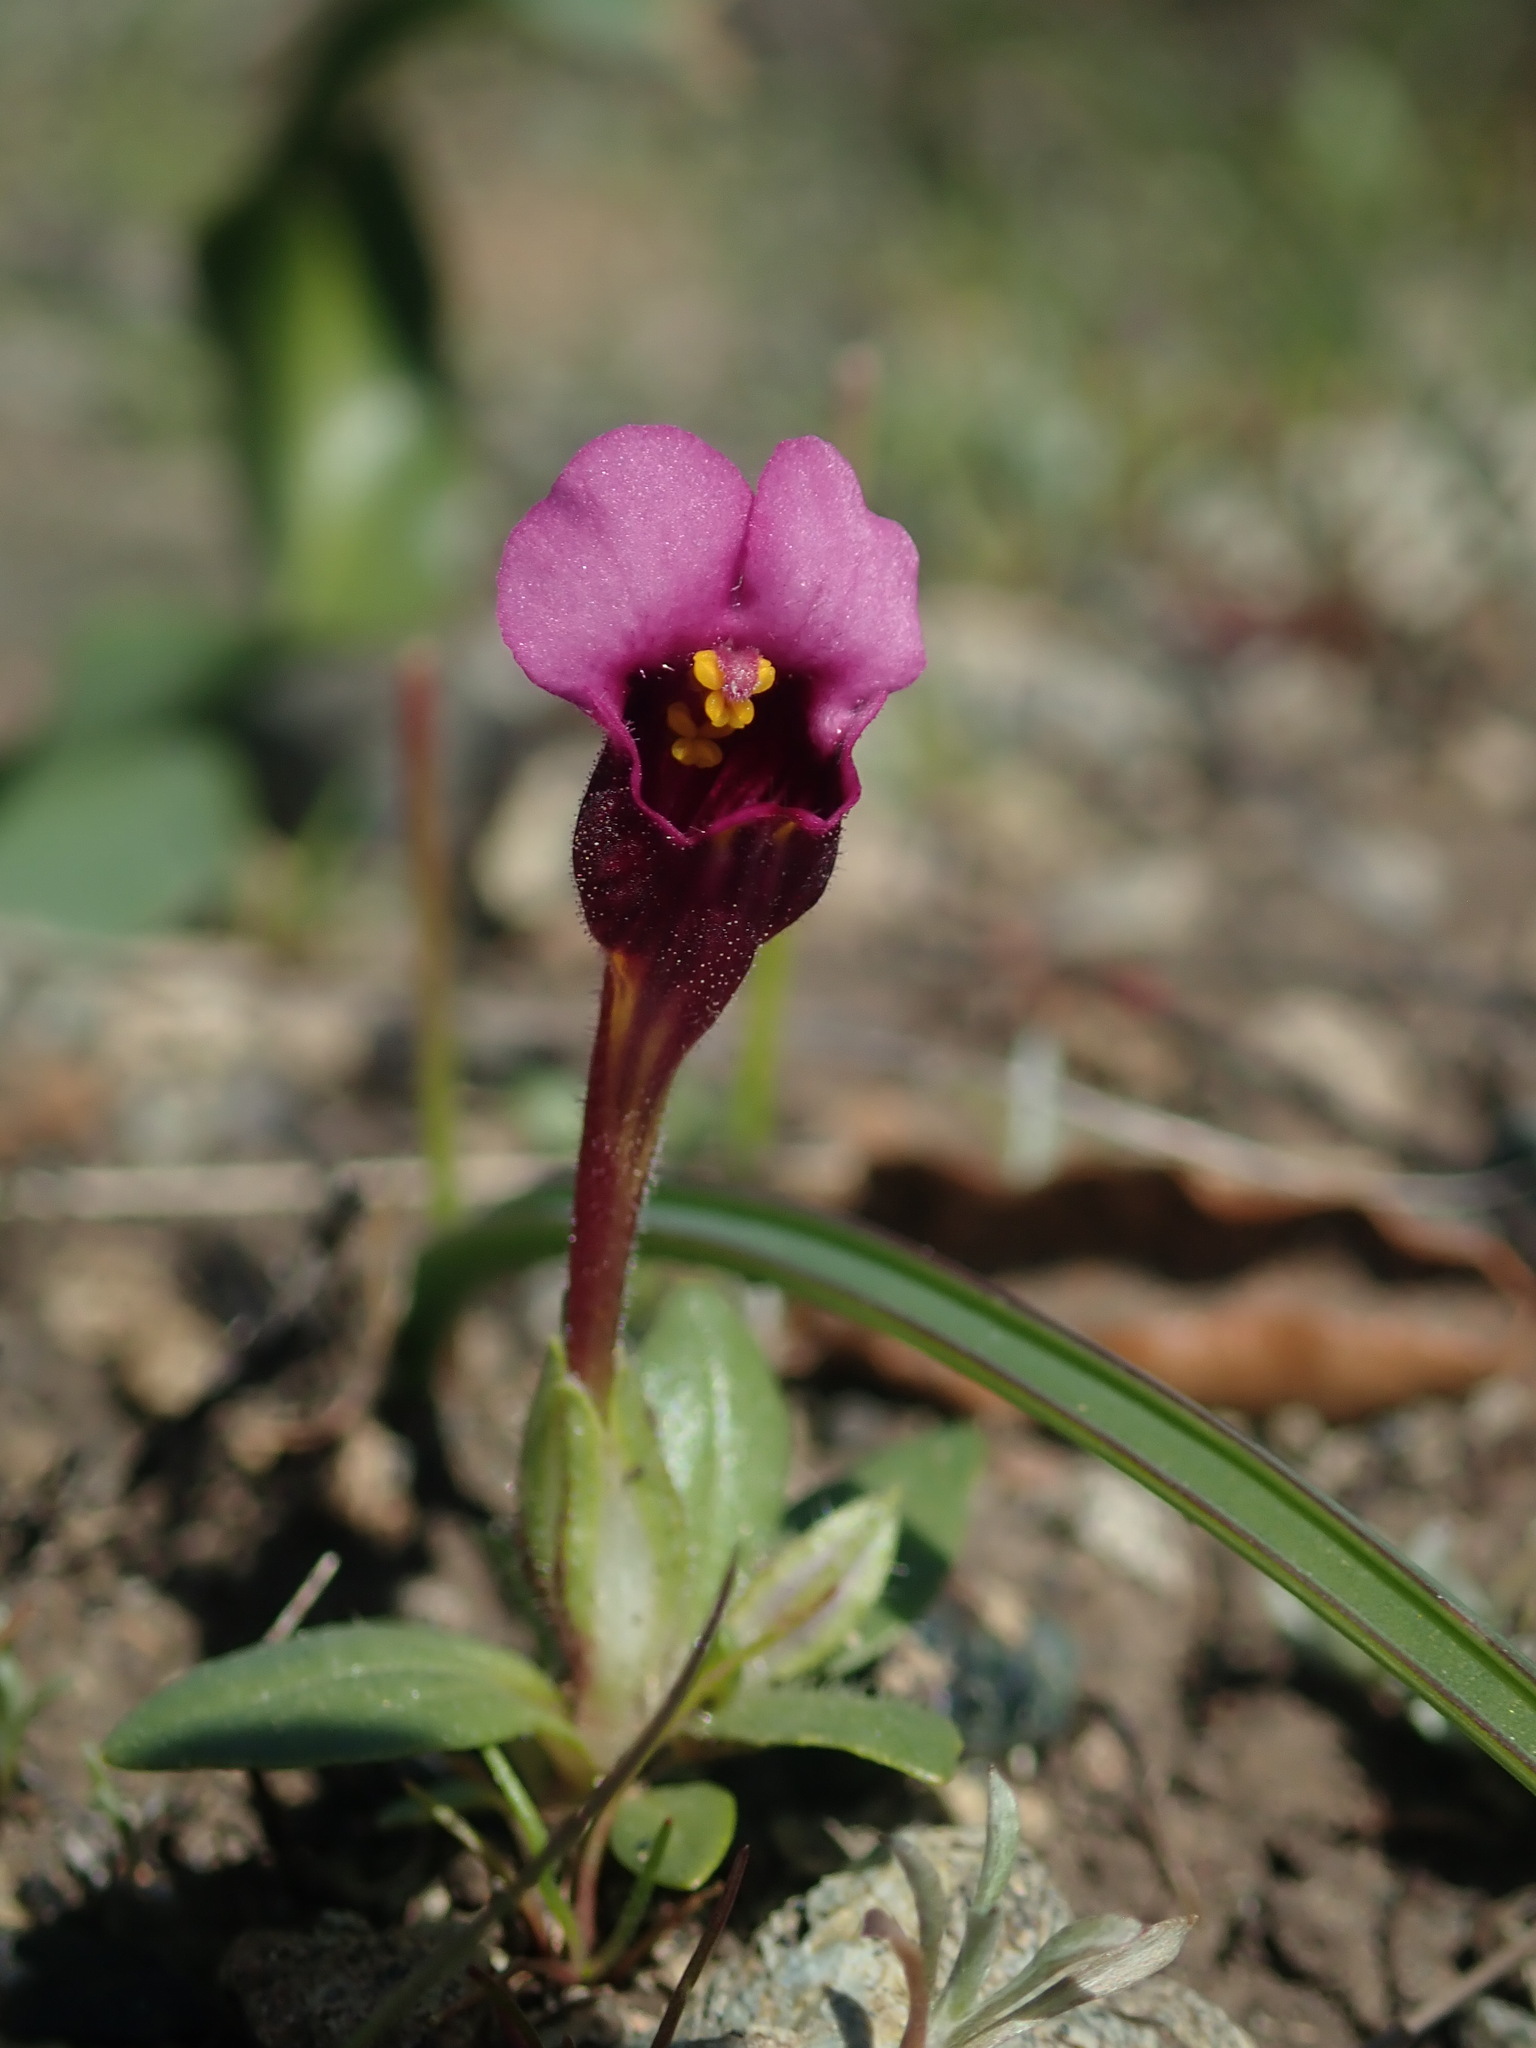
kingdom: Plantae
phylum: Tracheophyta
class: Magnoliopsida
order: Lamiales
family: Phrymaceae
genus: Diplacus
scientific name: Diplacus douglasii
